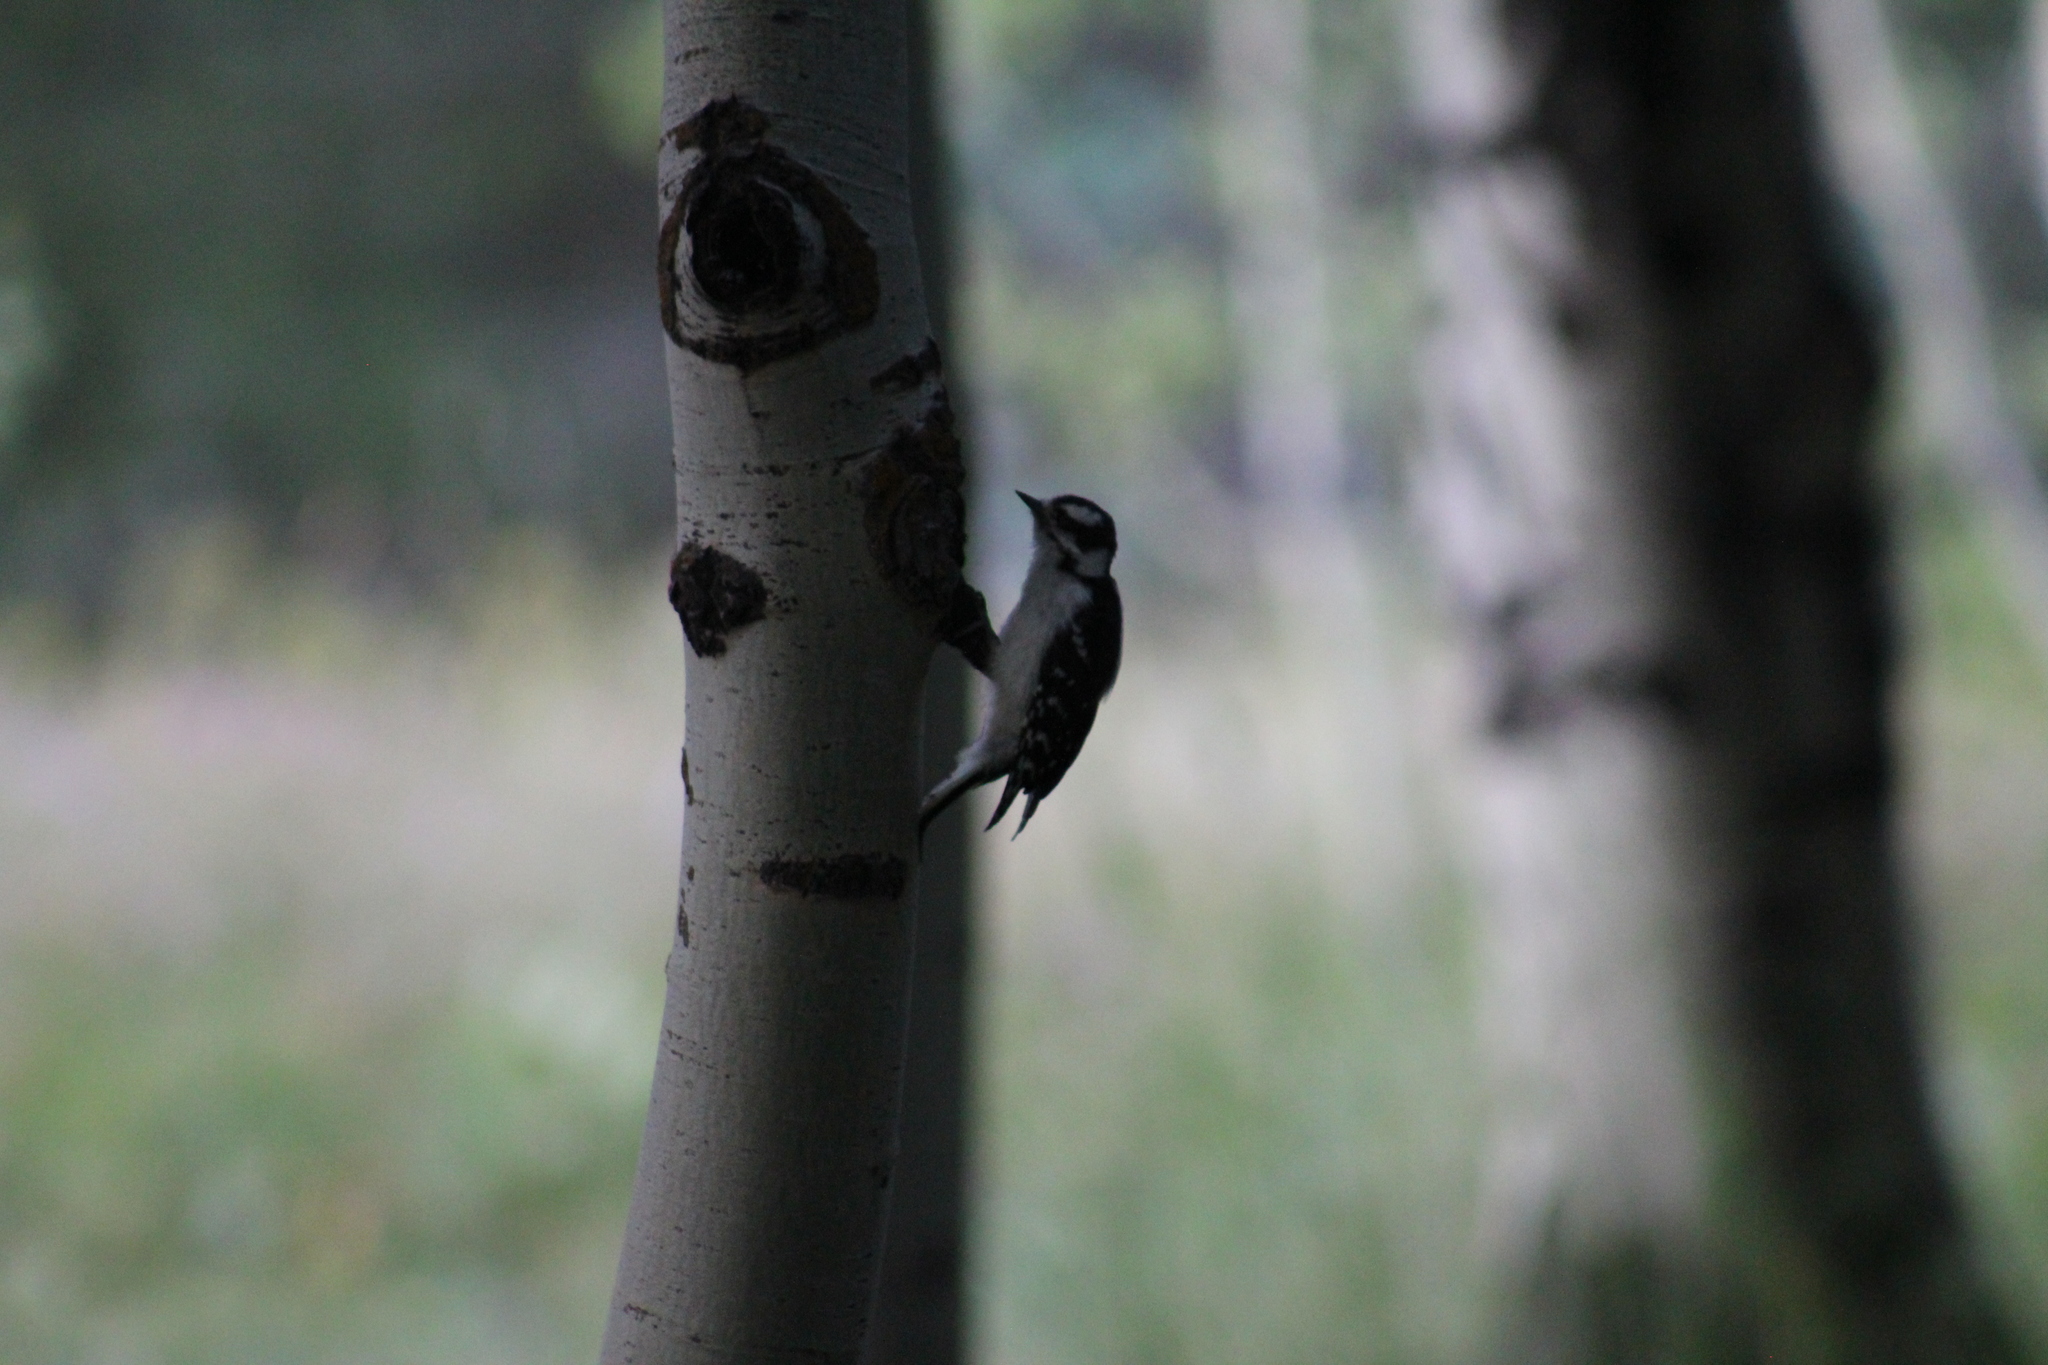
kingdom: Animalia
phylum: Chordata
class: Aves
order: Piciformes
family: Picidae
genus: Dryobates
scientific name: Dryobates pubescens
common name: Downy woodpecker
